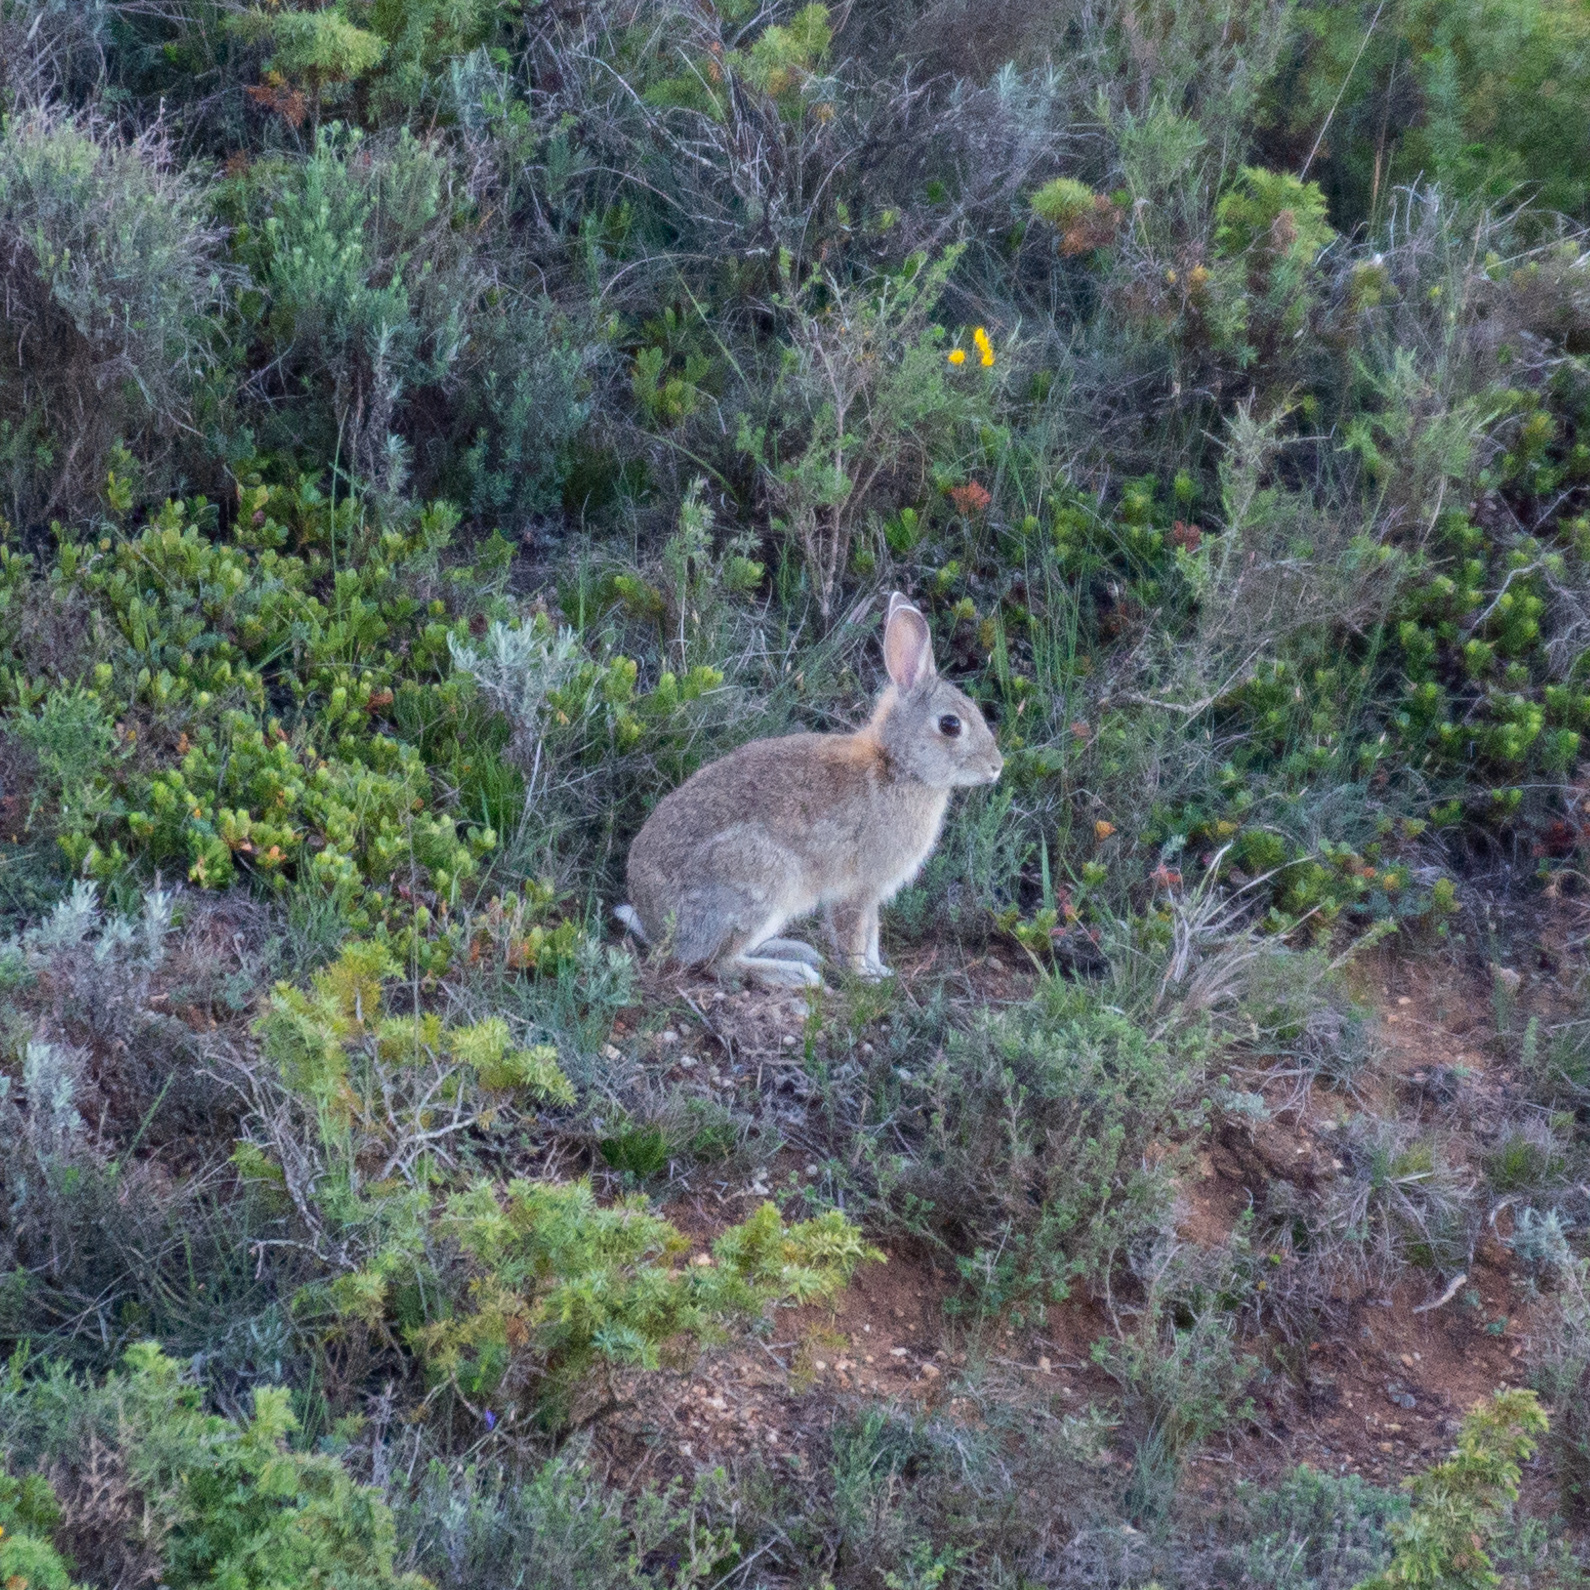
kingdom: Animalia
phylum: Chordata
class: Mammalia
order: Lagomorpha
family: Leporidae
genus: Oryctolagus
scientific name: Oryctolagus cuniculus
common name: European rabbit
